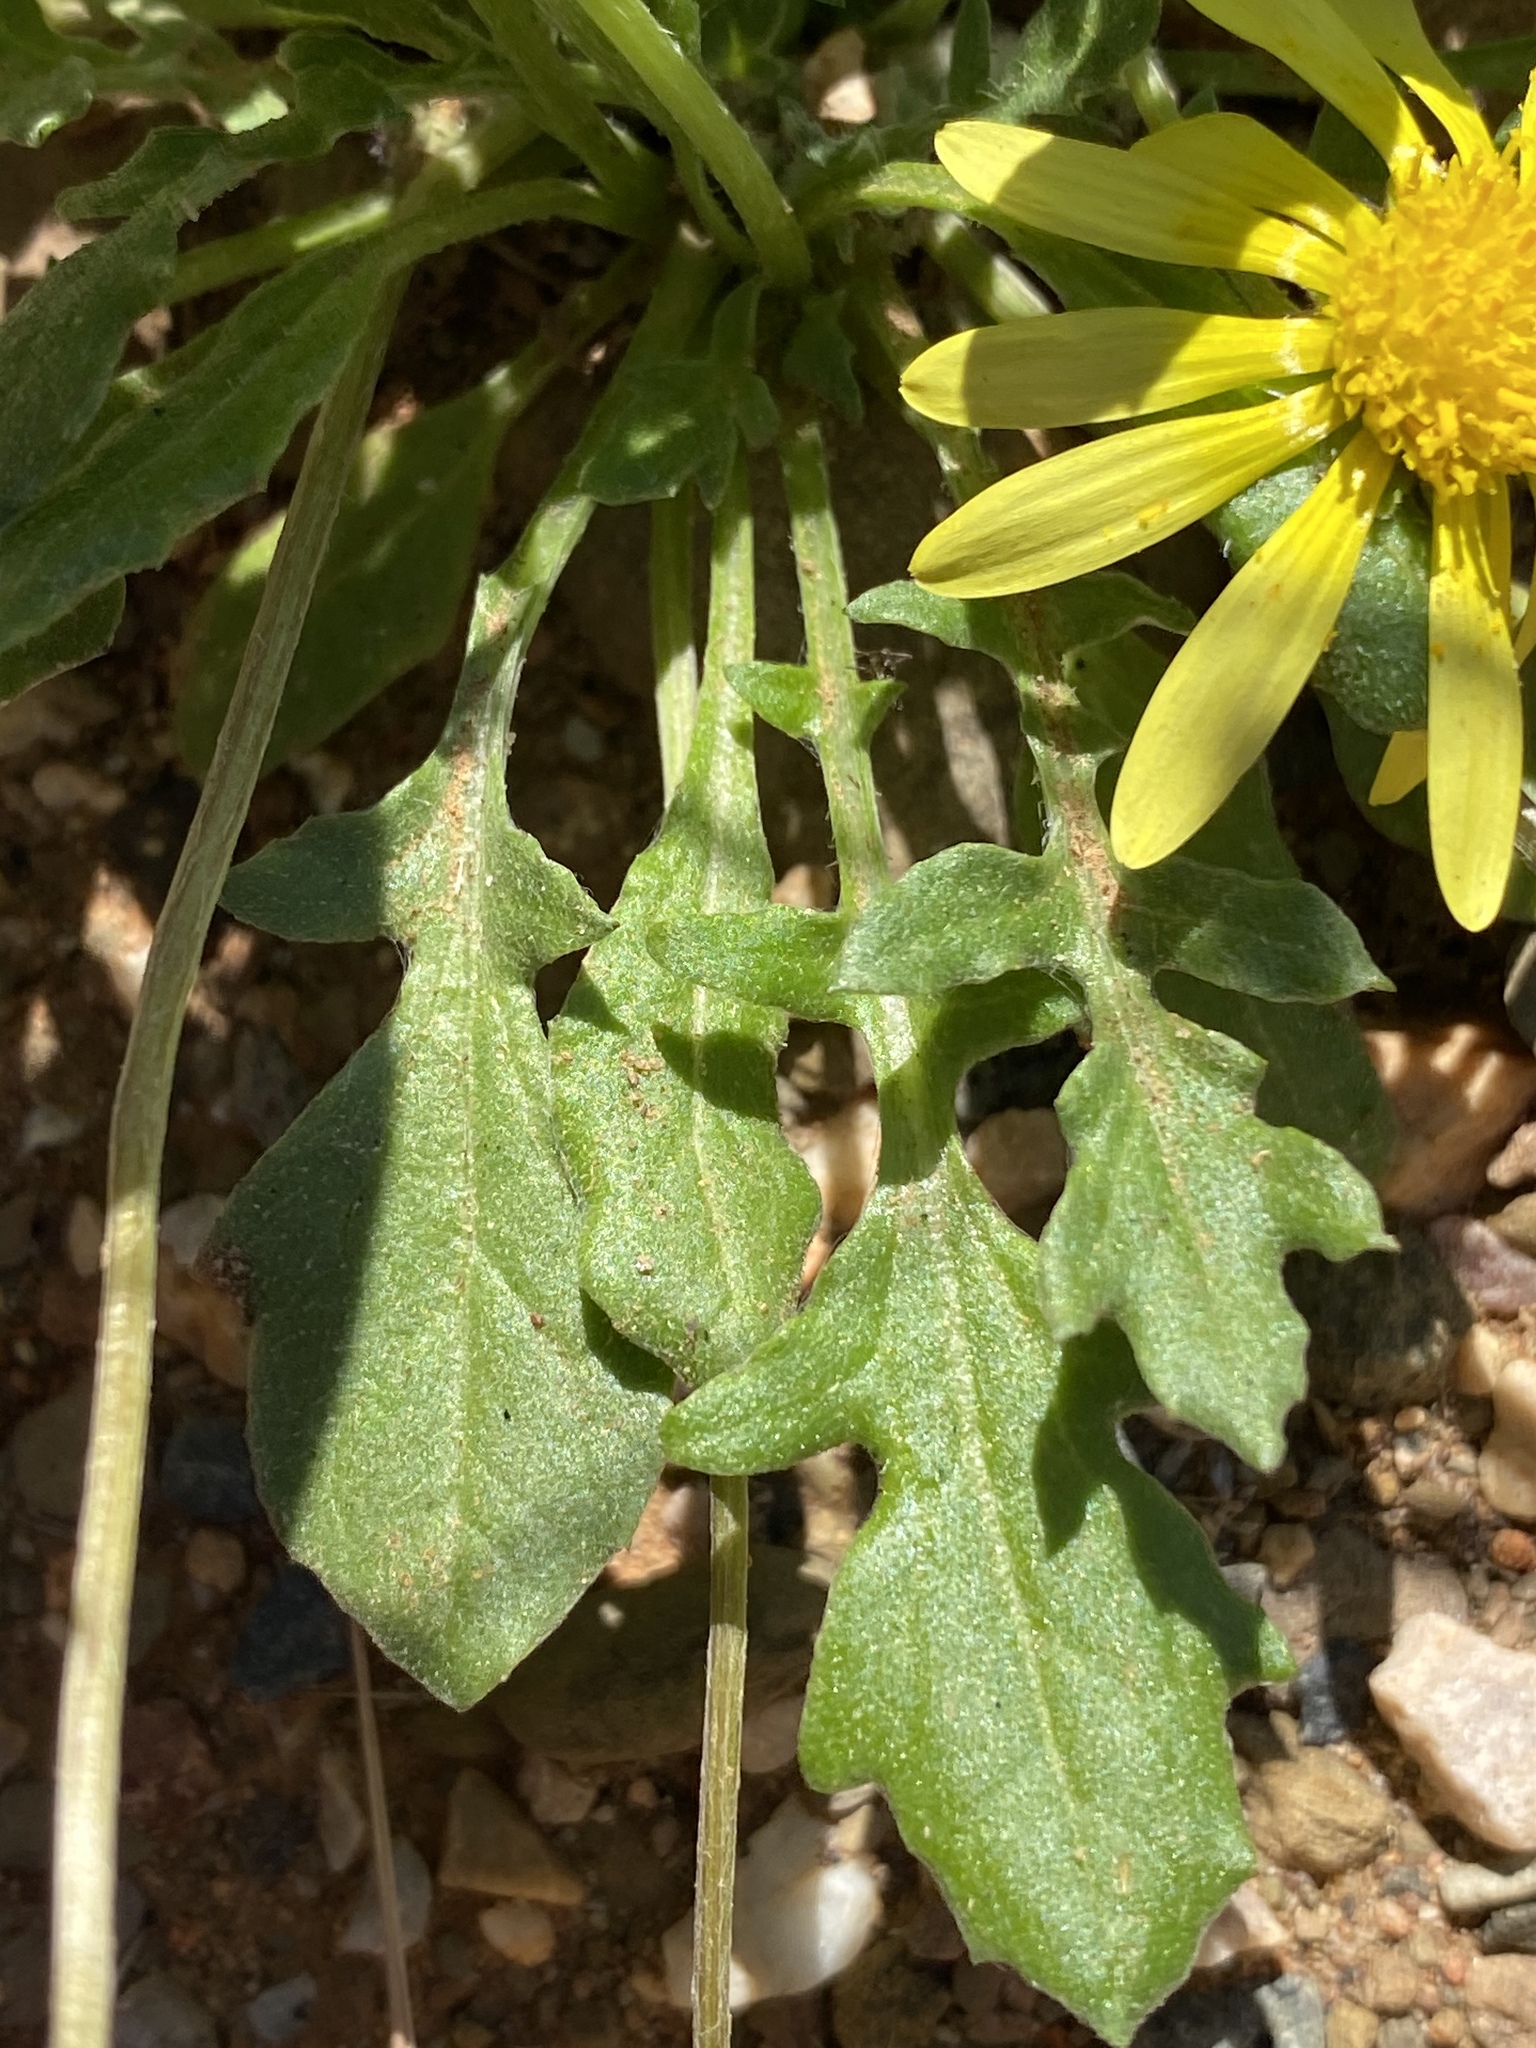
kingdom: Plantae
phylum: Tracheophyta
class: Magnoliopsida
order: Asterales
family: Asteraceae
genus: Arctotis
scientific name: Arctotis dregei
